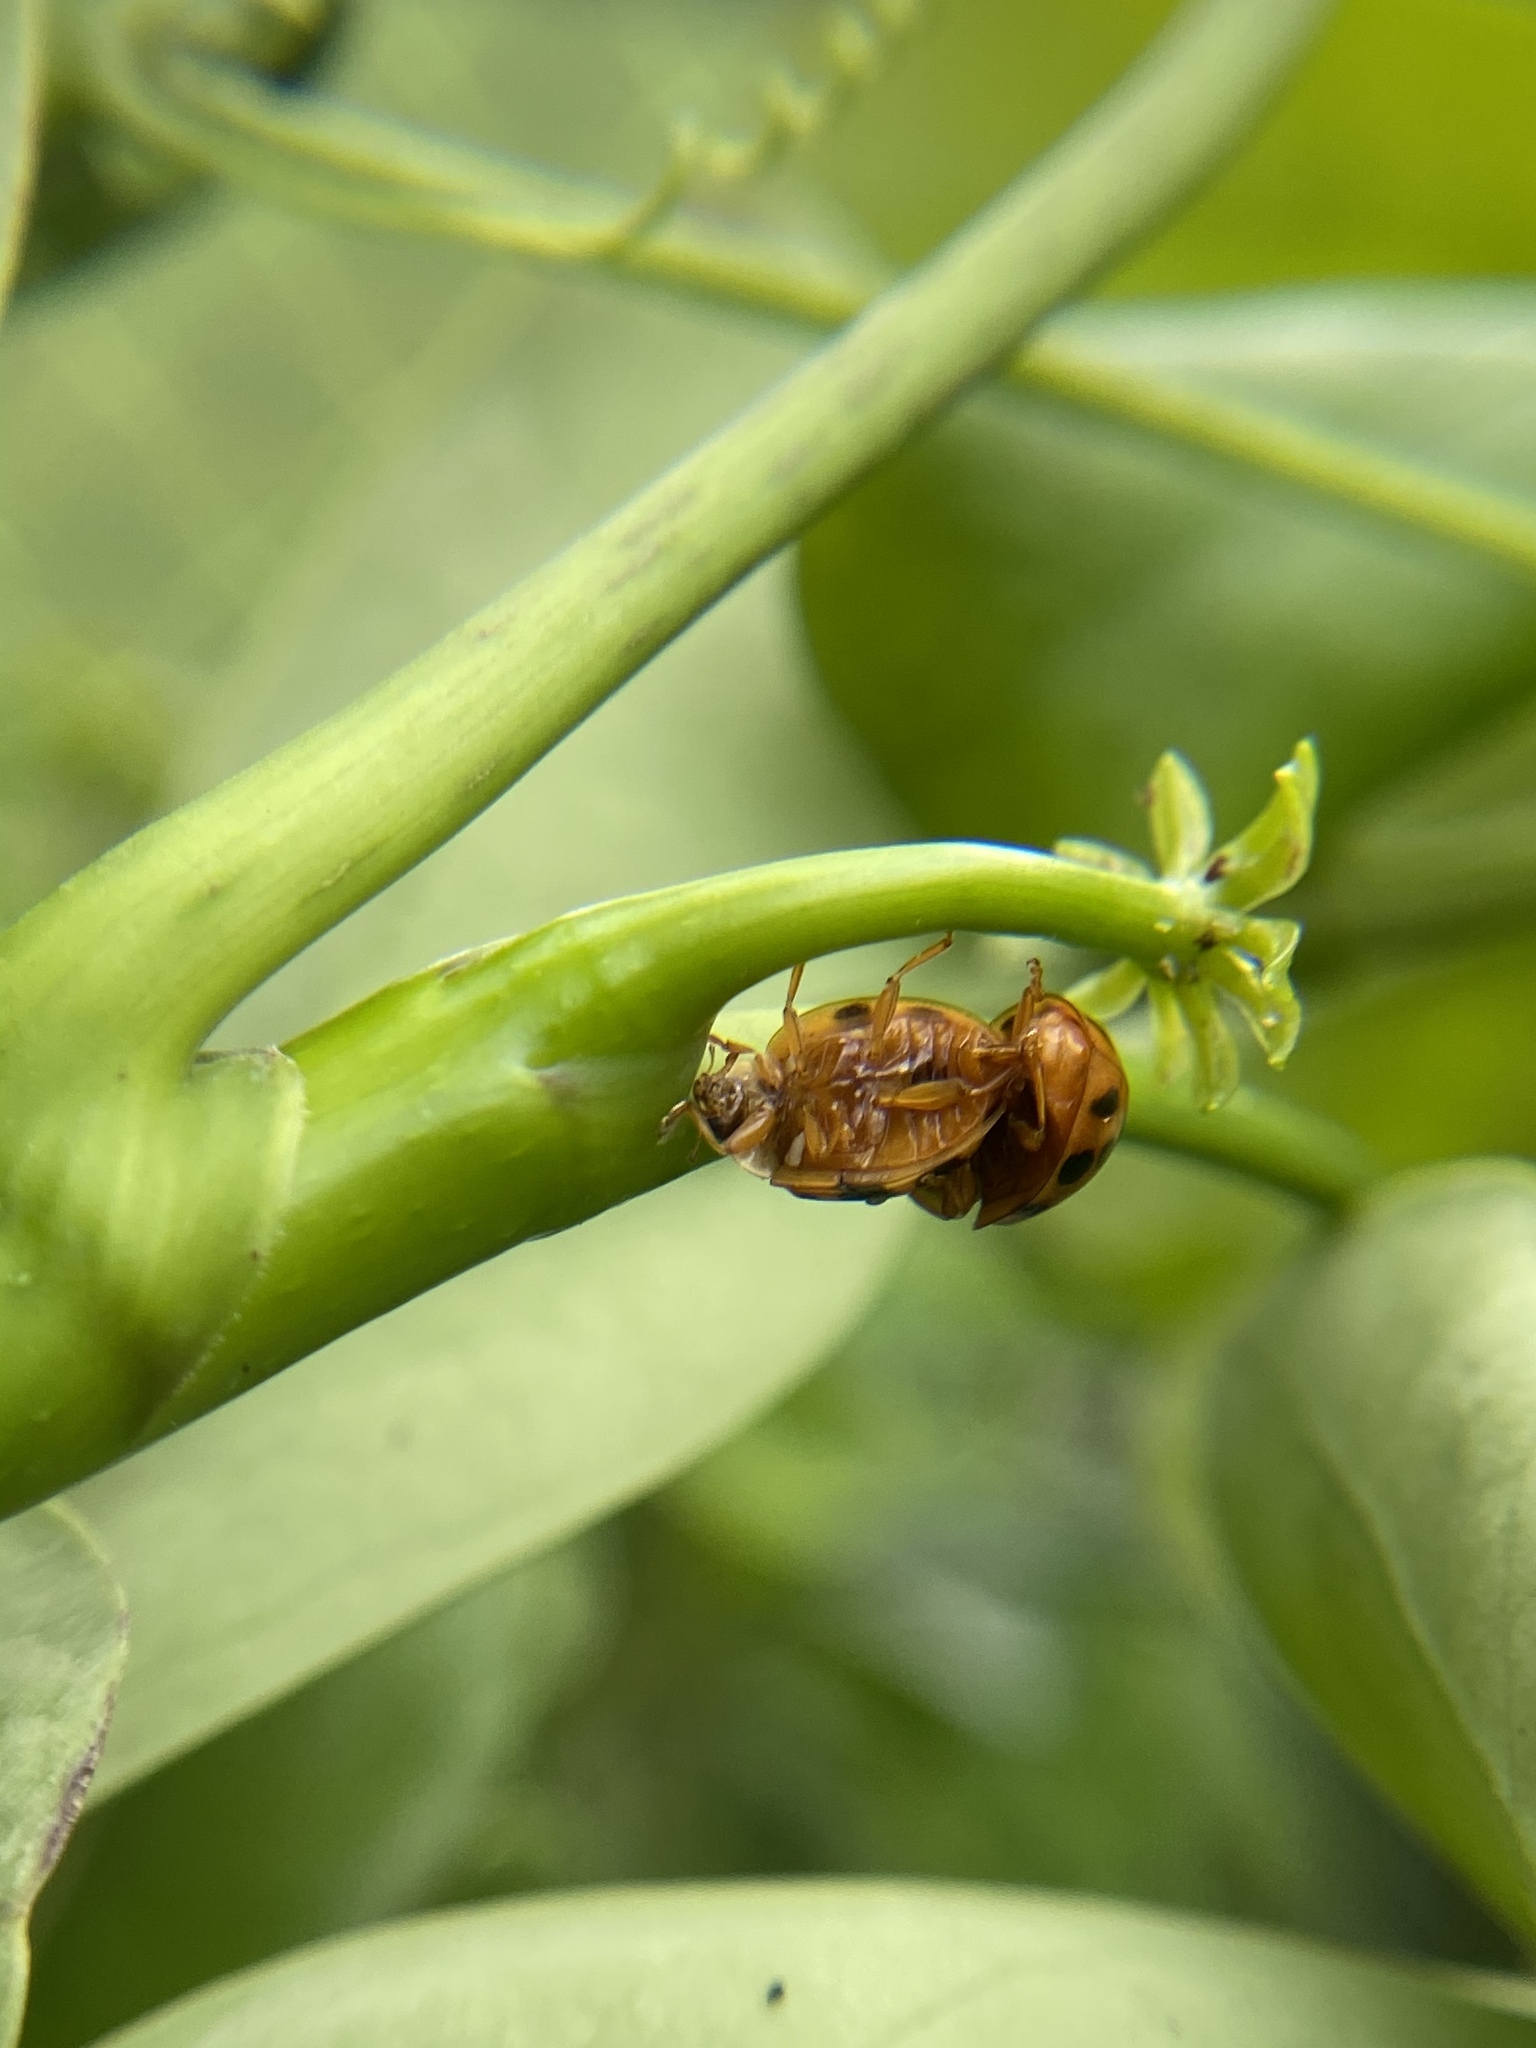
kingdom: Animalia
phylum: Arthropoda
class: Insecta
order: Coleoptera
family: Coccinellidae
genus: Harmonia
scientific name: Harmonia axyridis
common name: Harlequin ladybird
